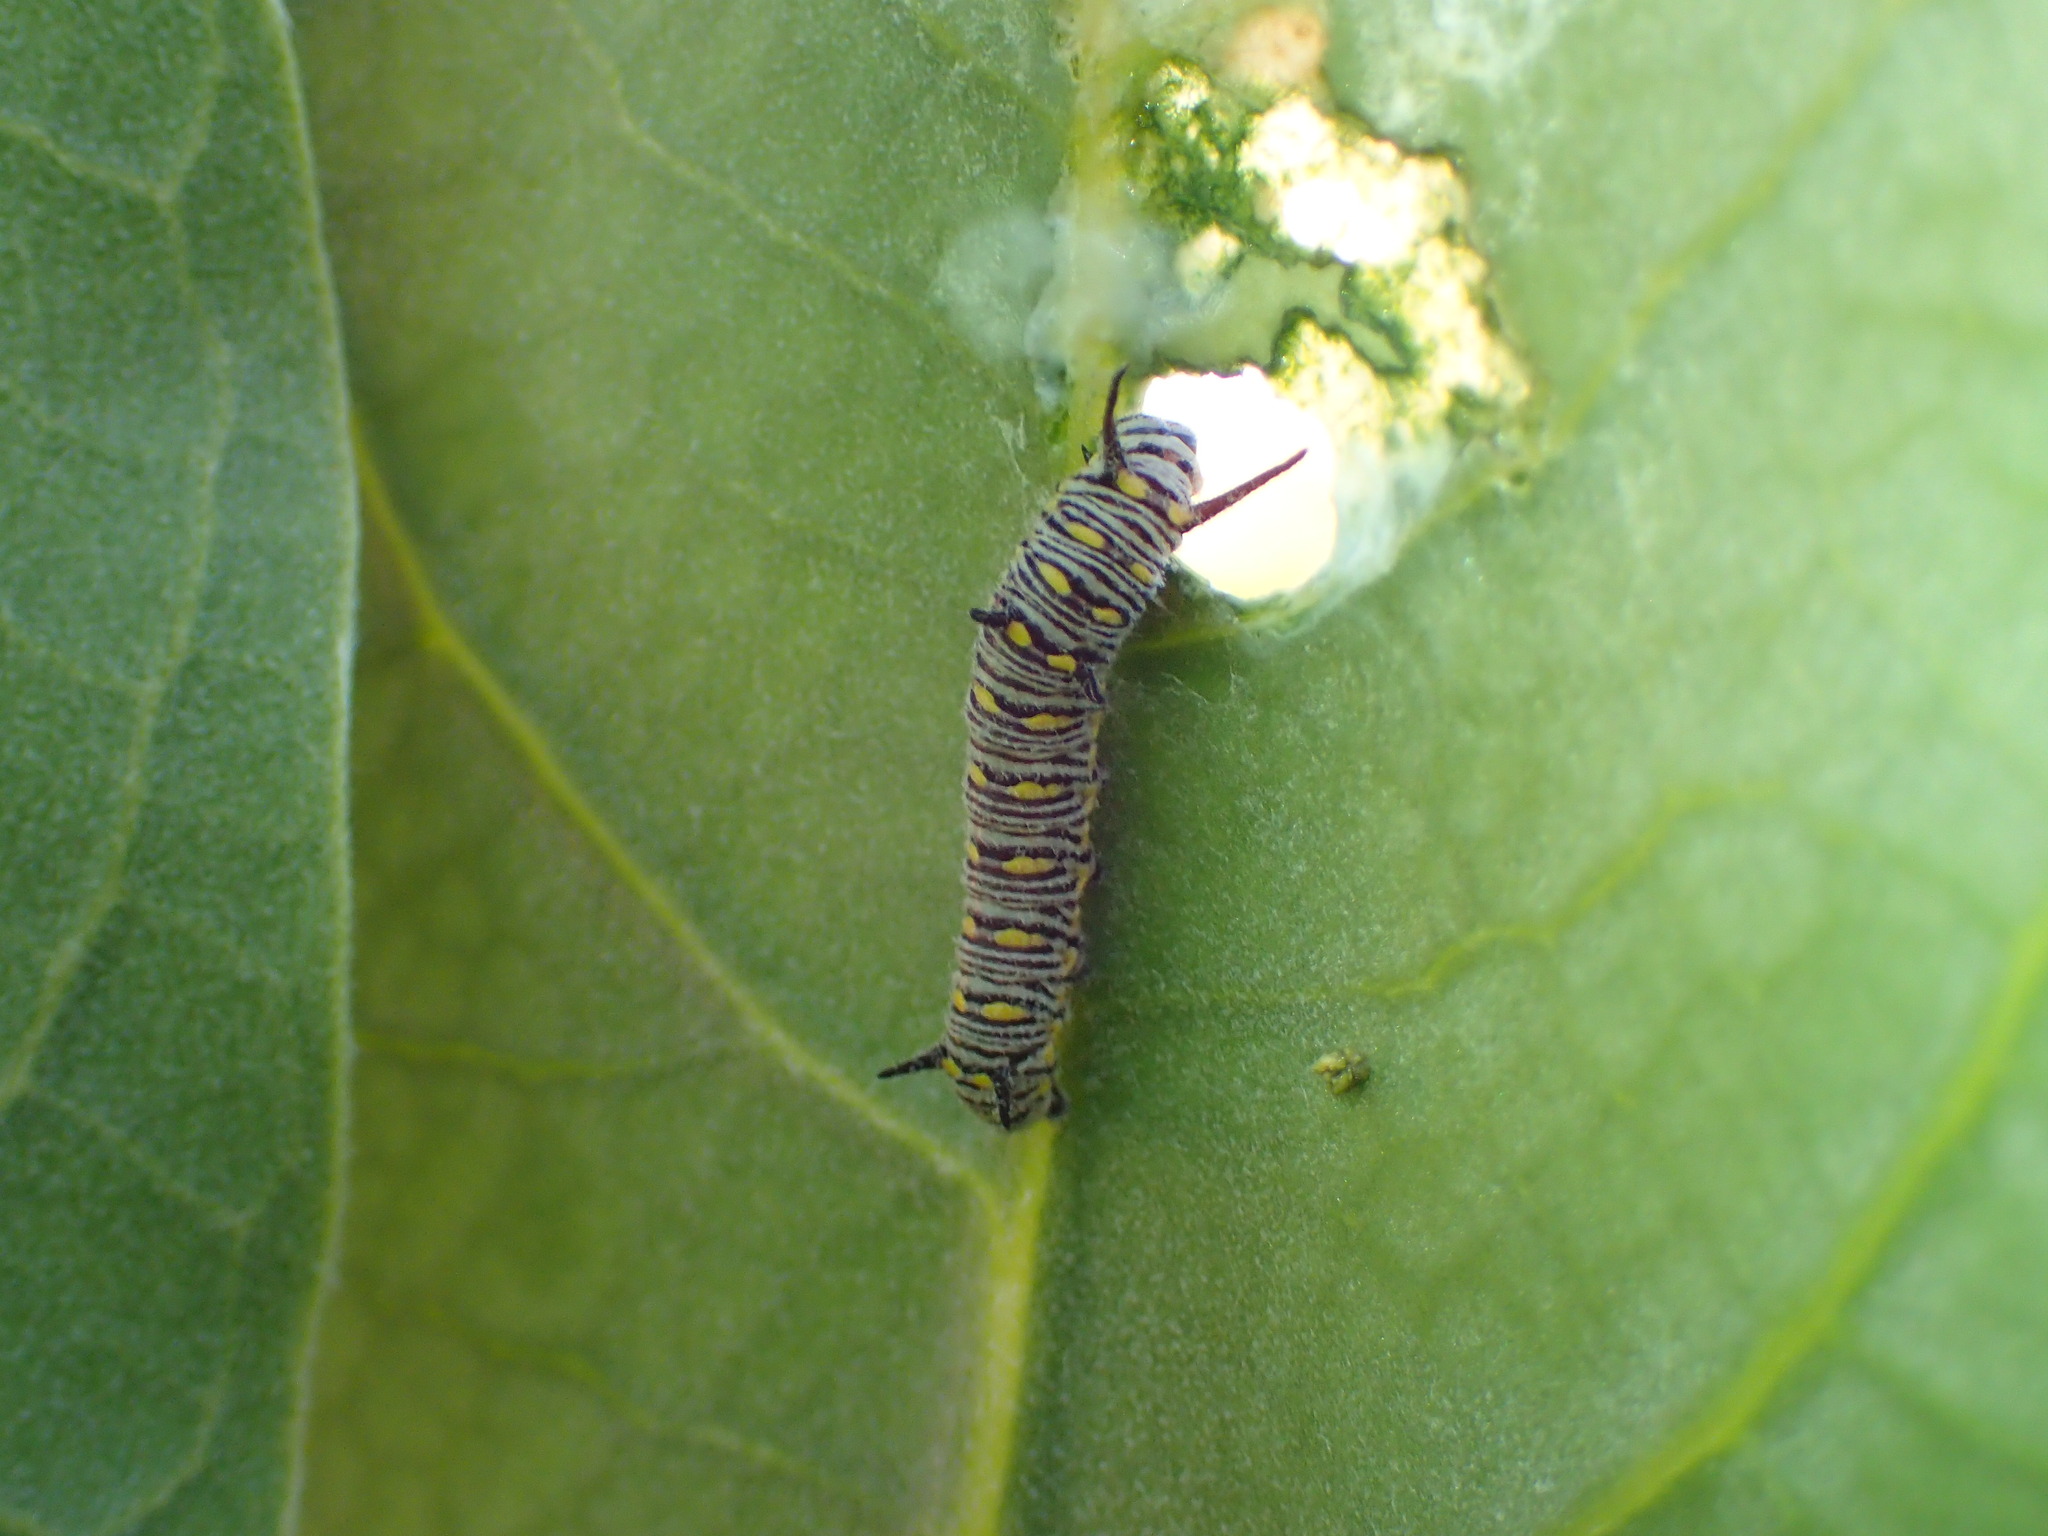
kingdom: Animalia
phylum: Arthropoda
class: Insecta
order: Lepidoptera
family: Nymphalidae
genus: Danaus
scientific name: Danaus chrysippus
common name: Plain tiger
